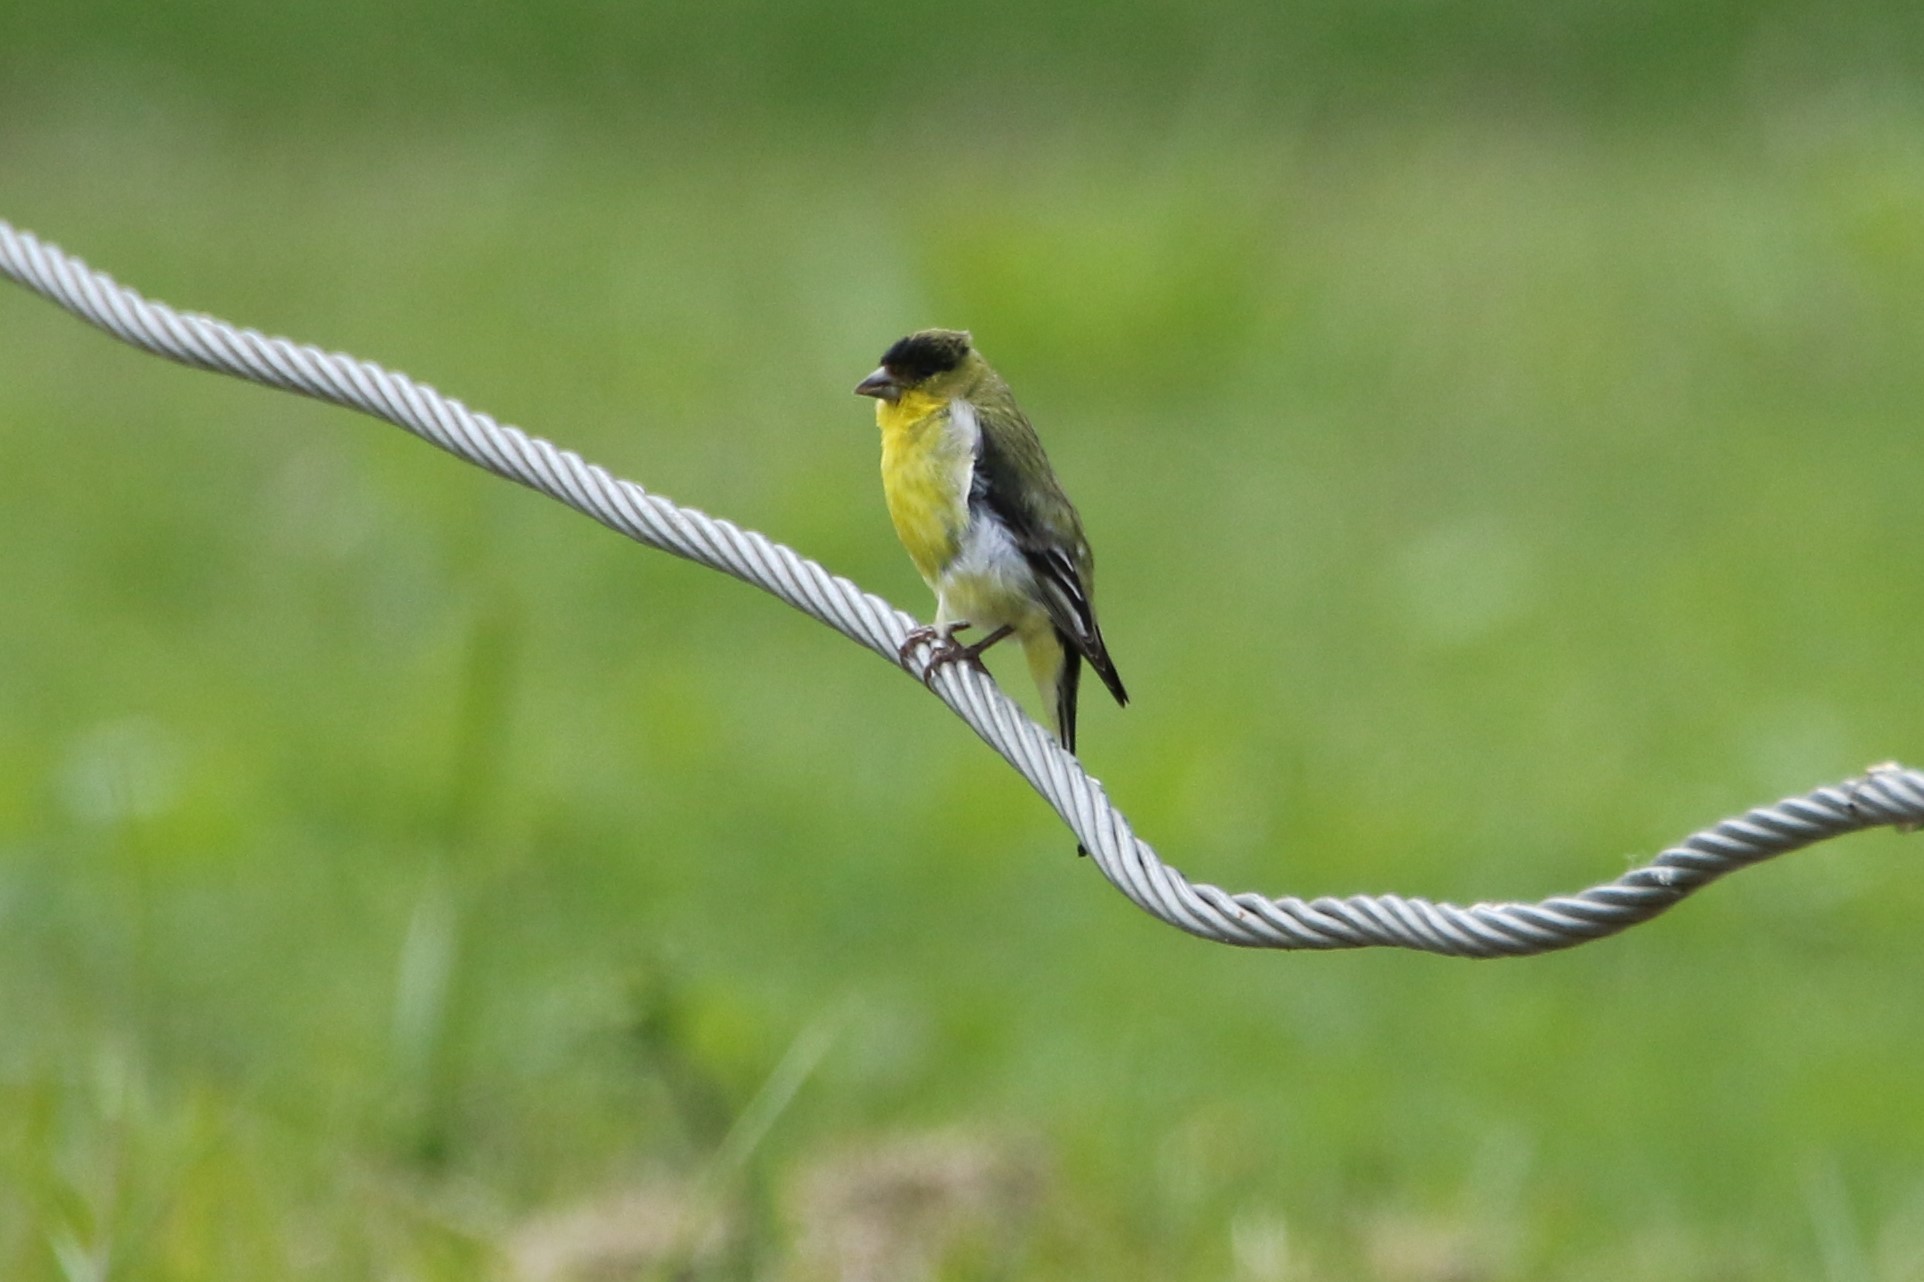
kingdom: Animalia
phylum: Chordata
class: Aves
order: Passeriformes
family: Fringillidae
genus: Spinus
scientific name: Spinus psaltria
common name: Lesser goldfinch
